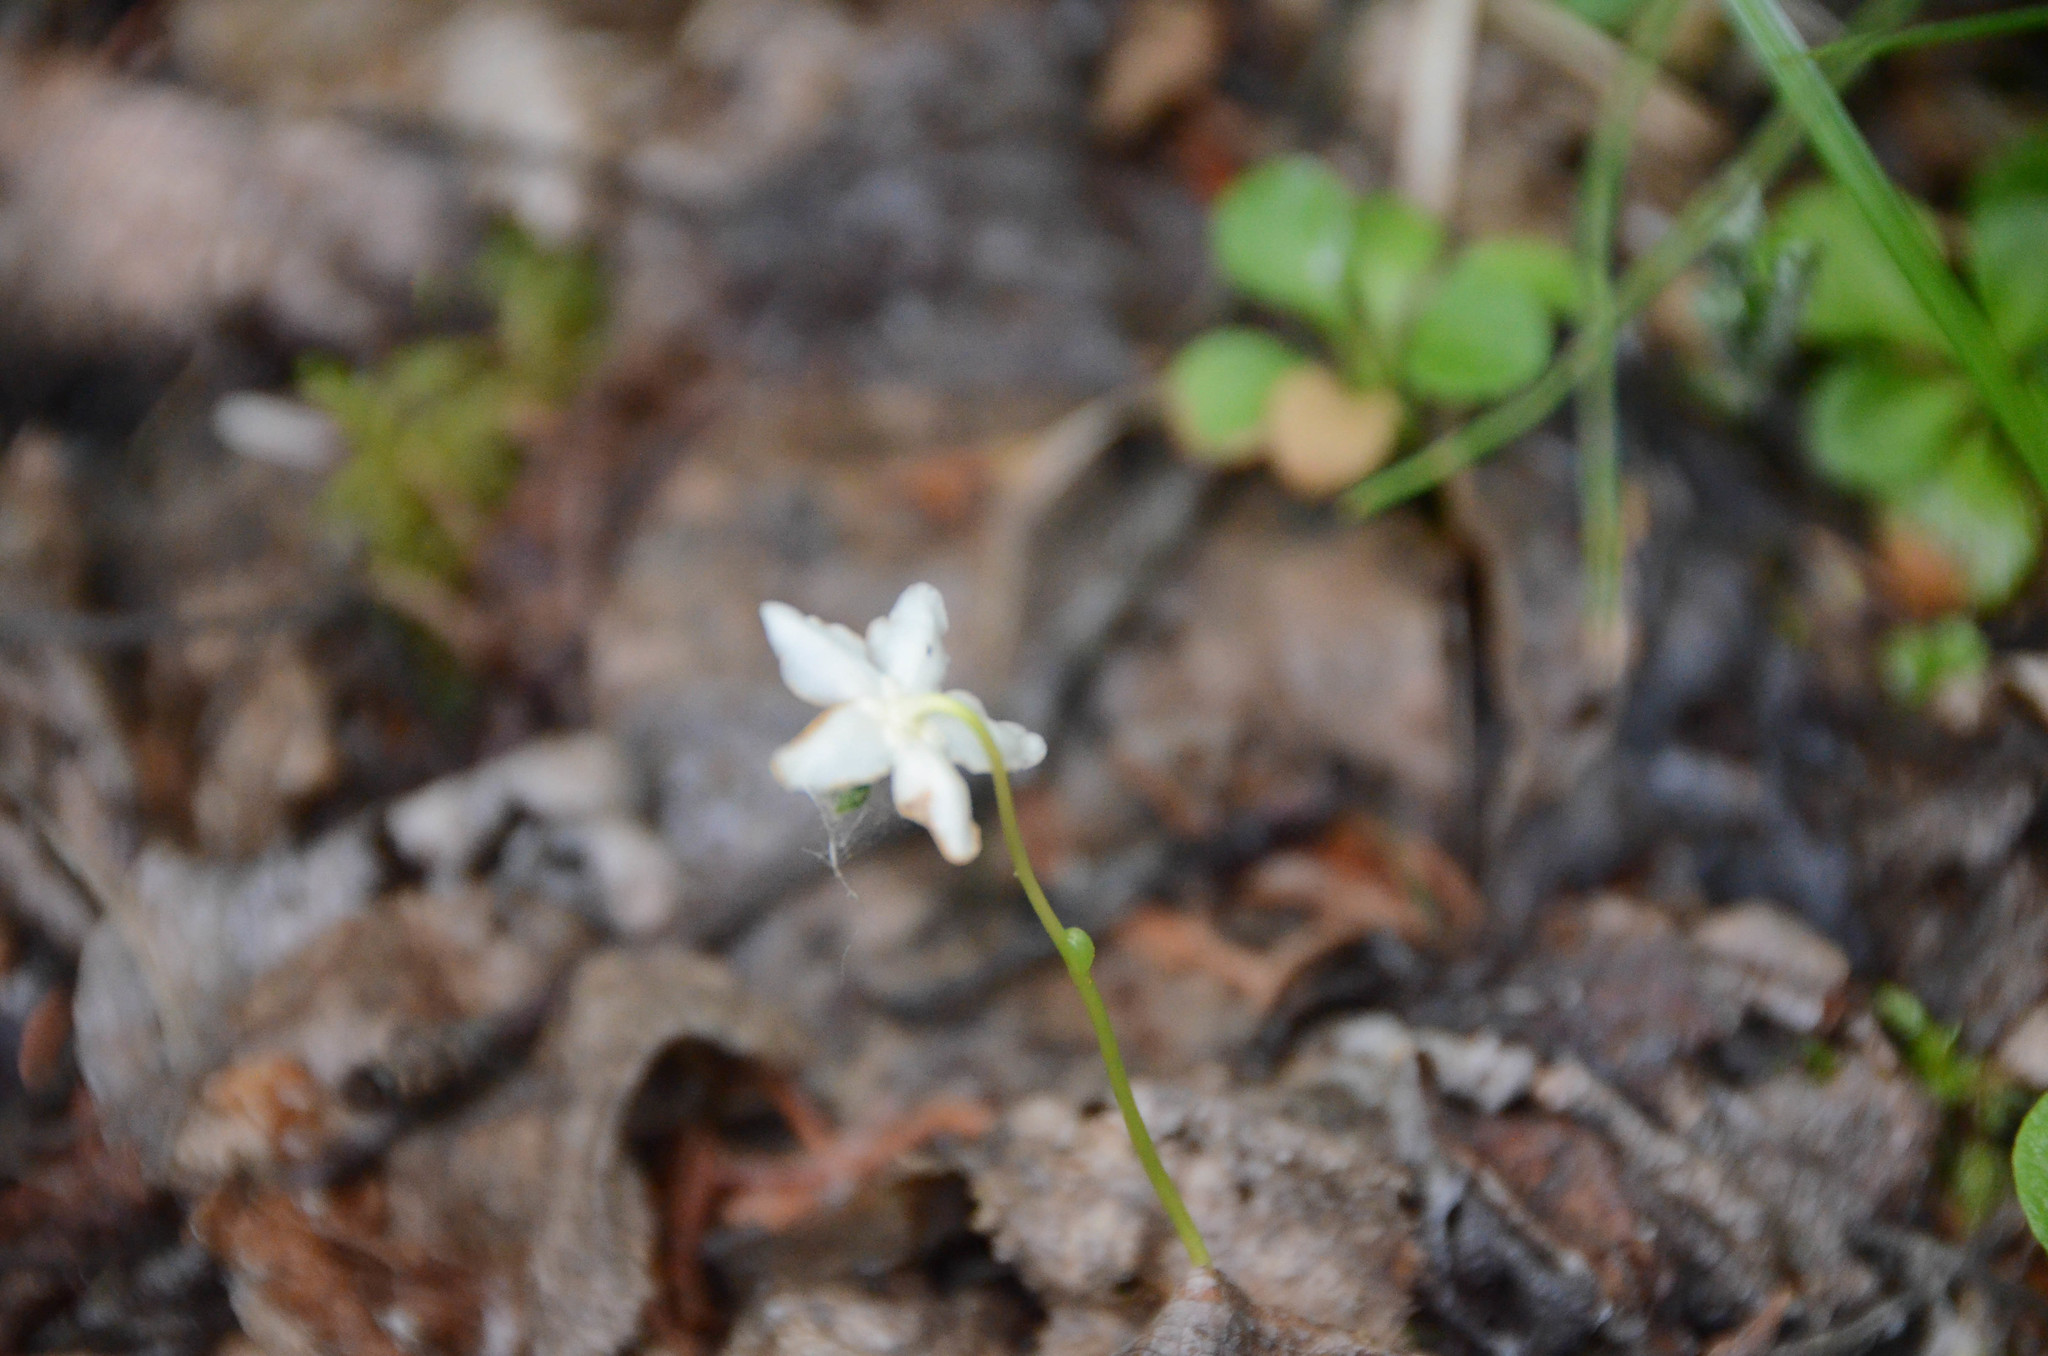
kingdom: Plantae
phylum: Tracheophyta
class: Magnoliopsida
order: Ericales
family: Ericaceae
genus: Moneses
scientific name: Moneses uniflora
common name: One-flowered wintergreen
